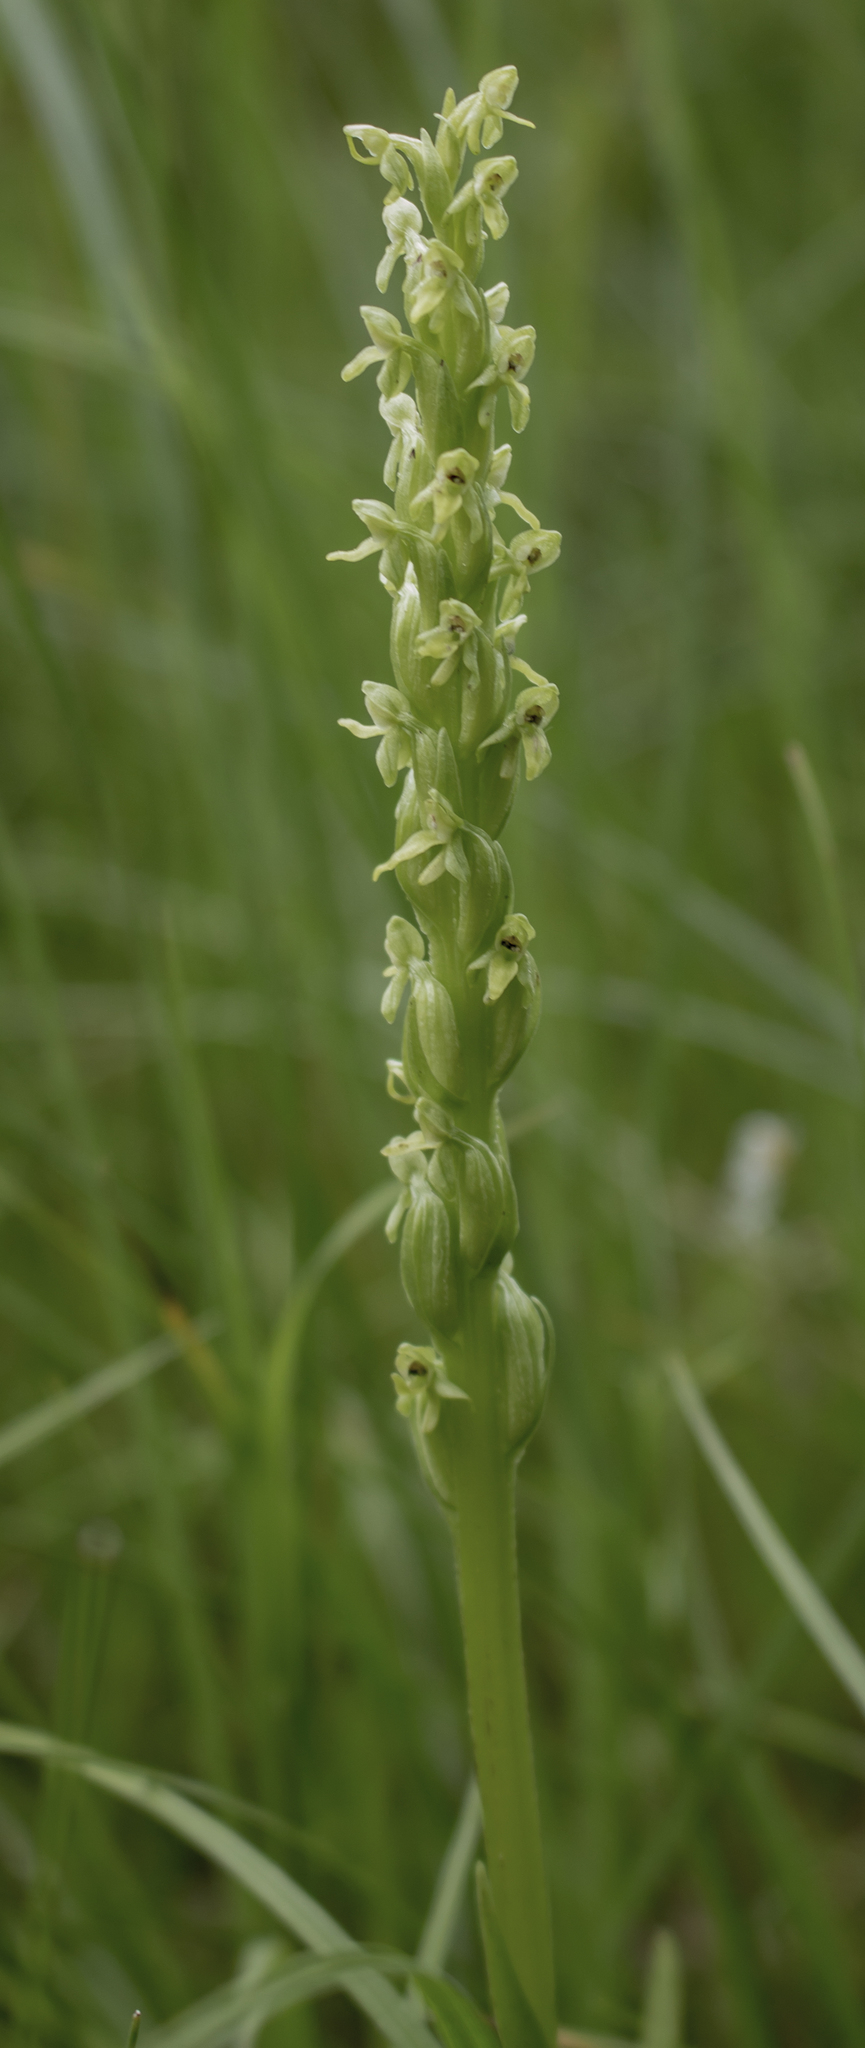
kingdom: Plantae
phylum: Tracheophyta
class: Liliopsida
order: Asparagales
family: Orchidaceae
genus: Platanthera
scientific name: Platanthera aquilonis
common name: Northern green orchid
